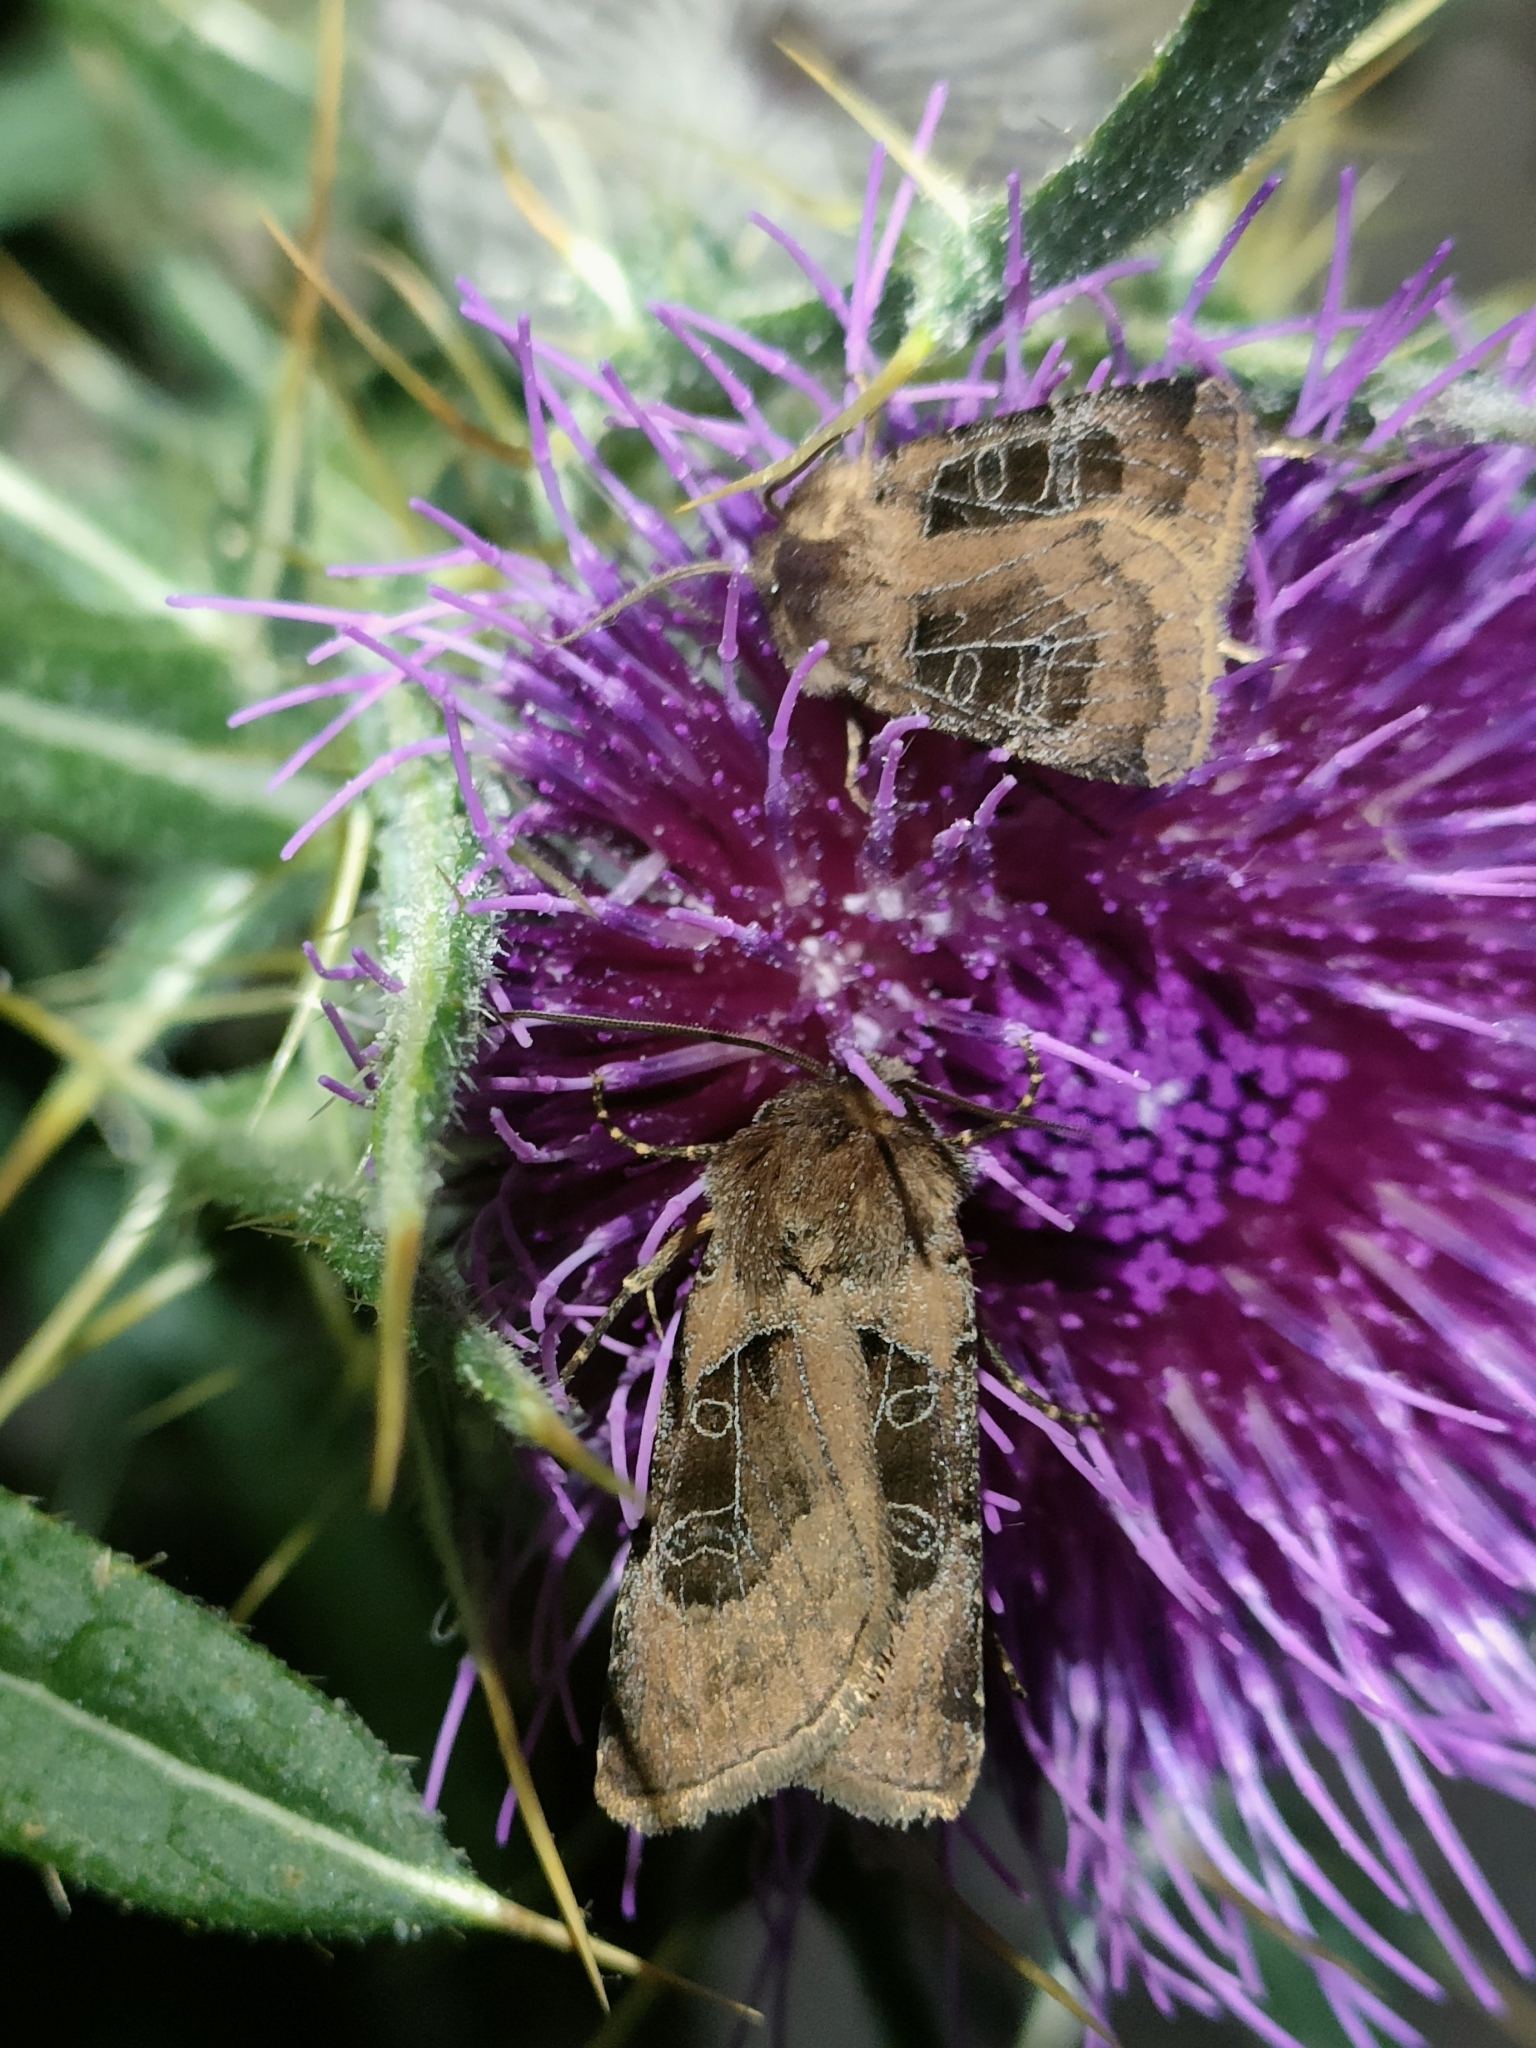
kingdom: Animalia
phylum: Arthropoda
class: Insecta
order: Lepidoptera
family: Noctuidae
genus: Chersotis
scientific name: Chersotis cuprea
